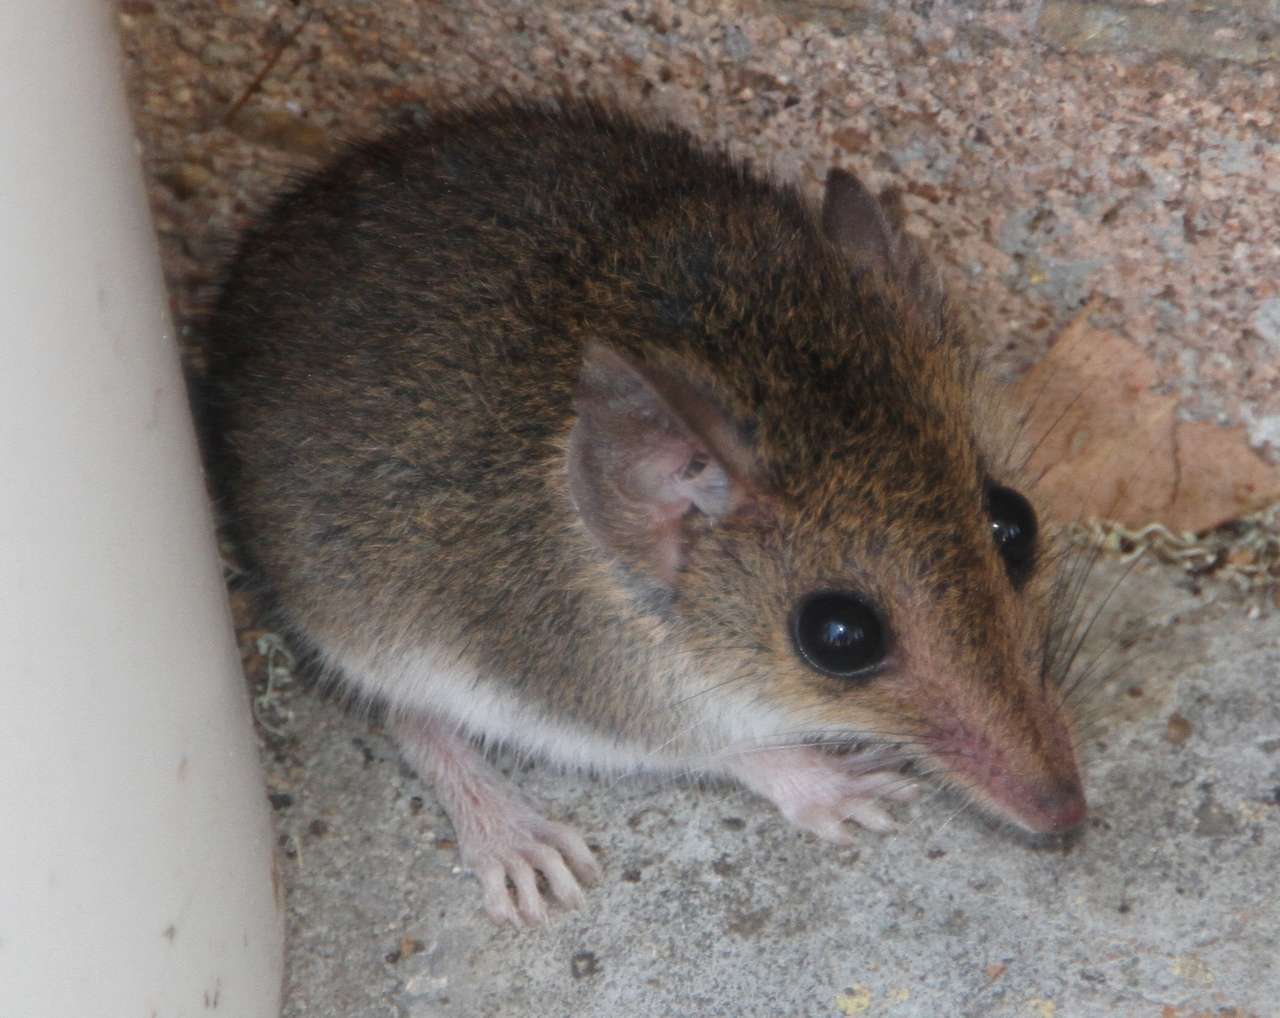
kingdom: Animalia
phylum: Chordata
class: Mammalia
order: Dasyuromorphia
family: Dasyuridae
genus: Sminthopsis
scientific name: Sminthopsis leucopus
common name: White-footed dunnart
